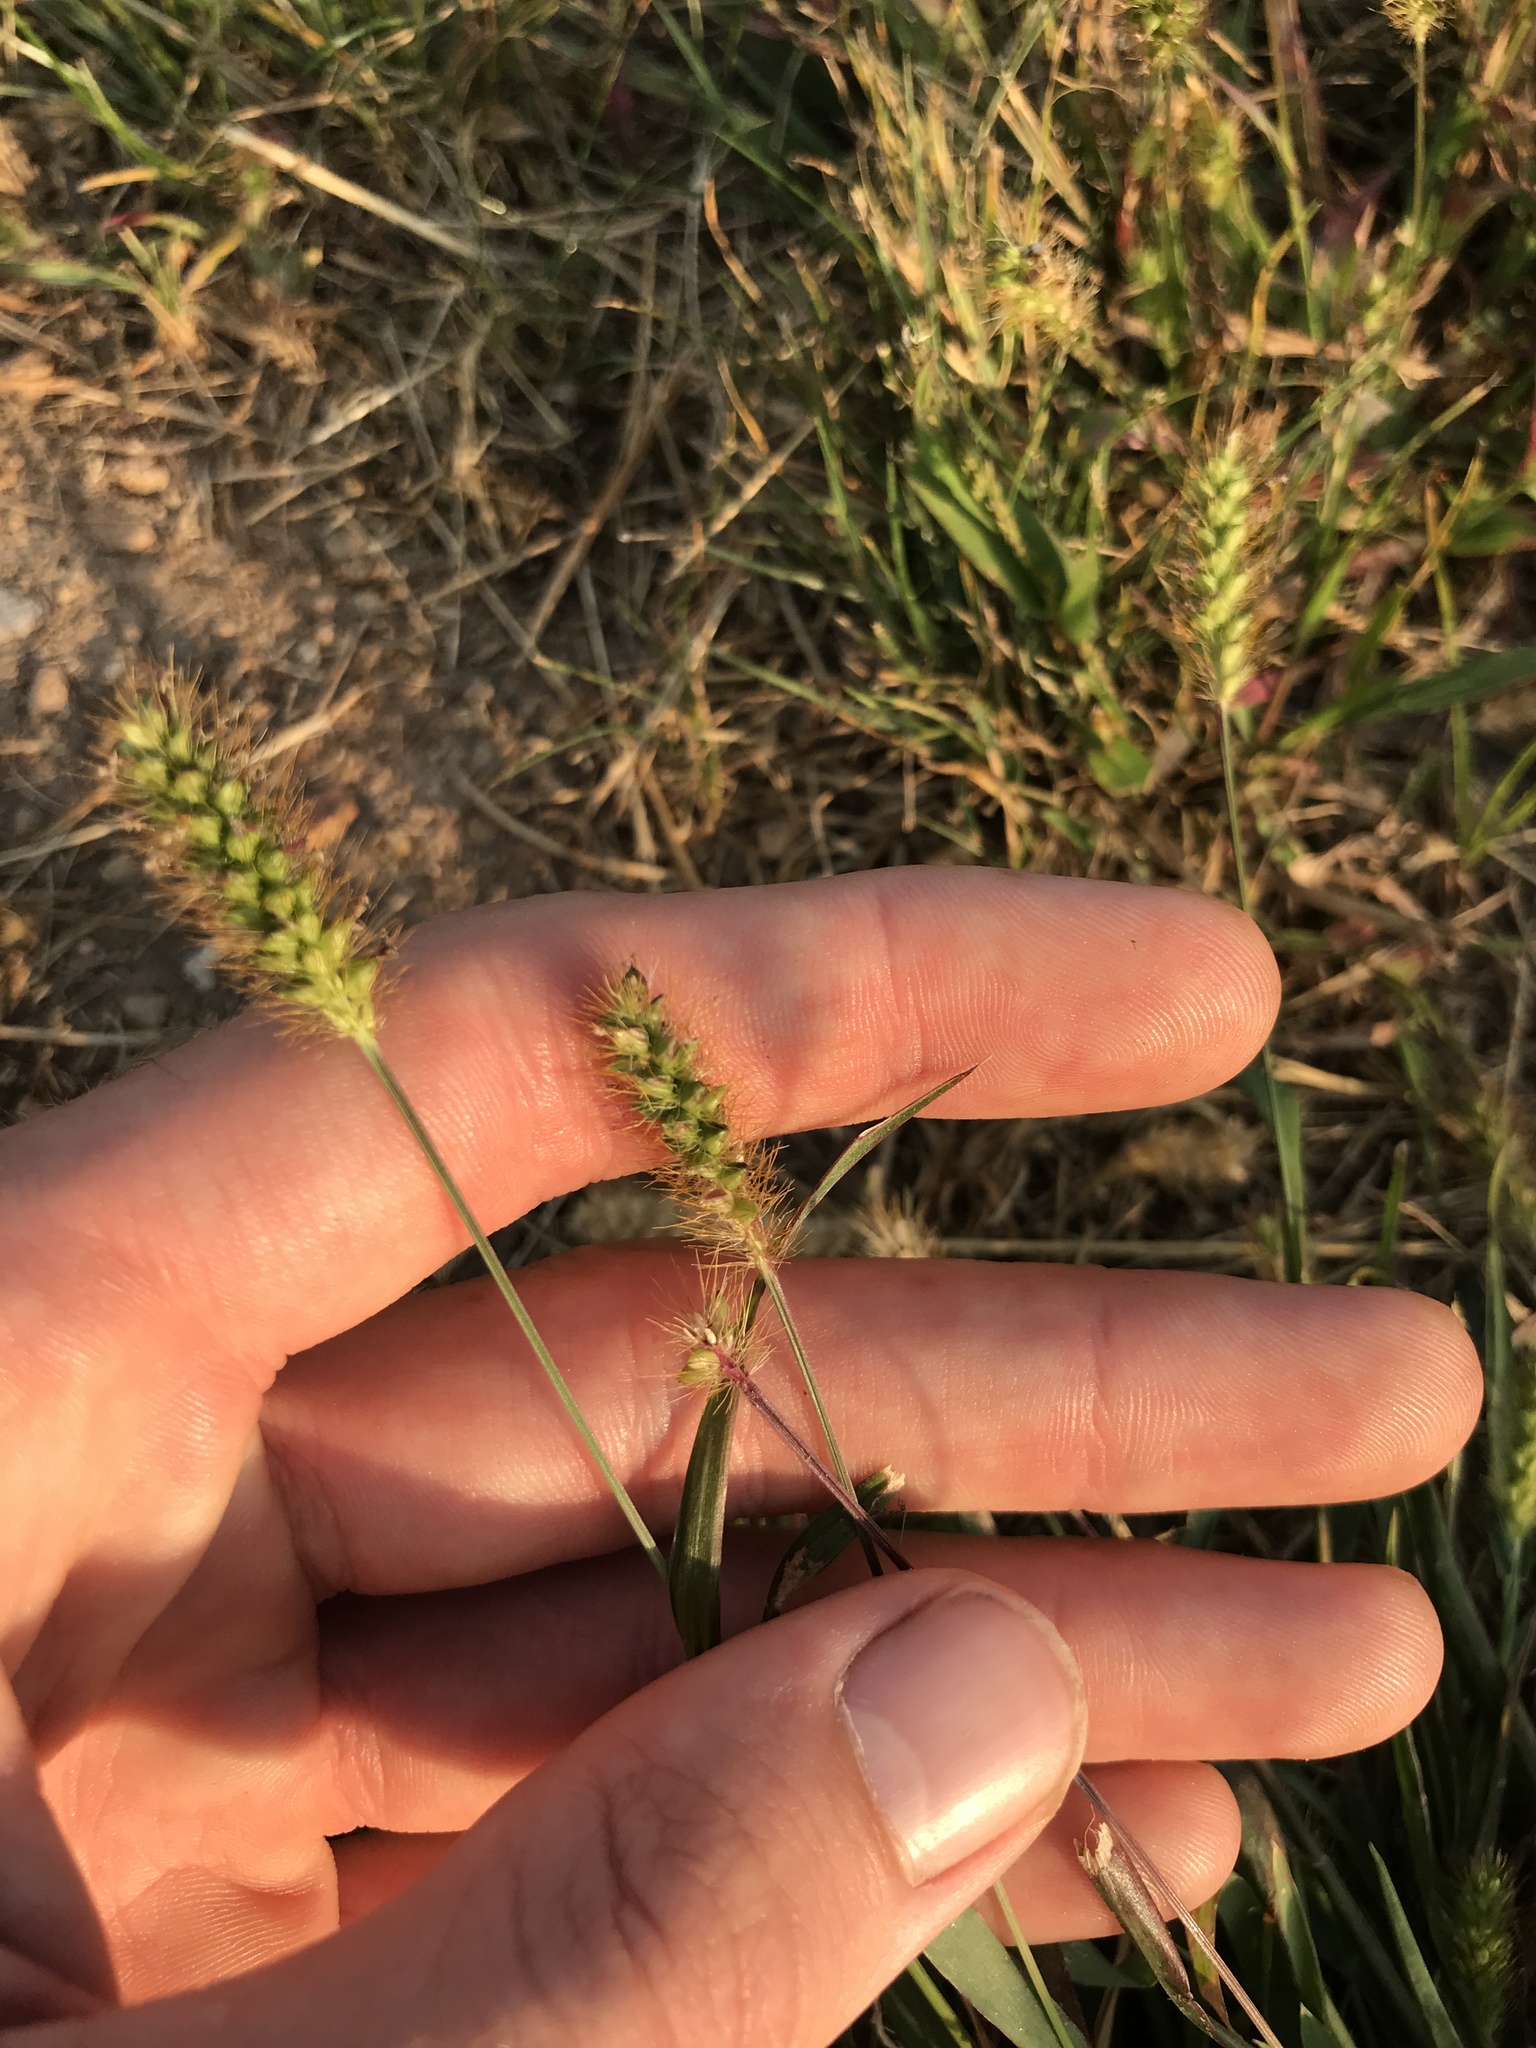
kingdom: Plantae
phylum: Tracheophyta
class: Liliopsida
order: Poales
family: Poaceae
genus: Setaria
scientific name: Setaria pumila
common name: Yellow bristle-grass
